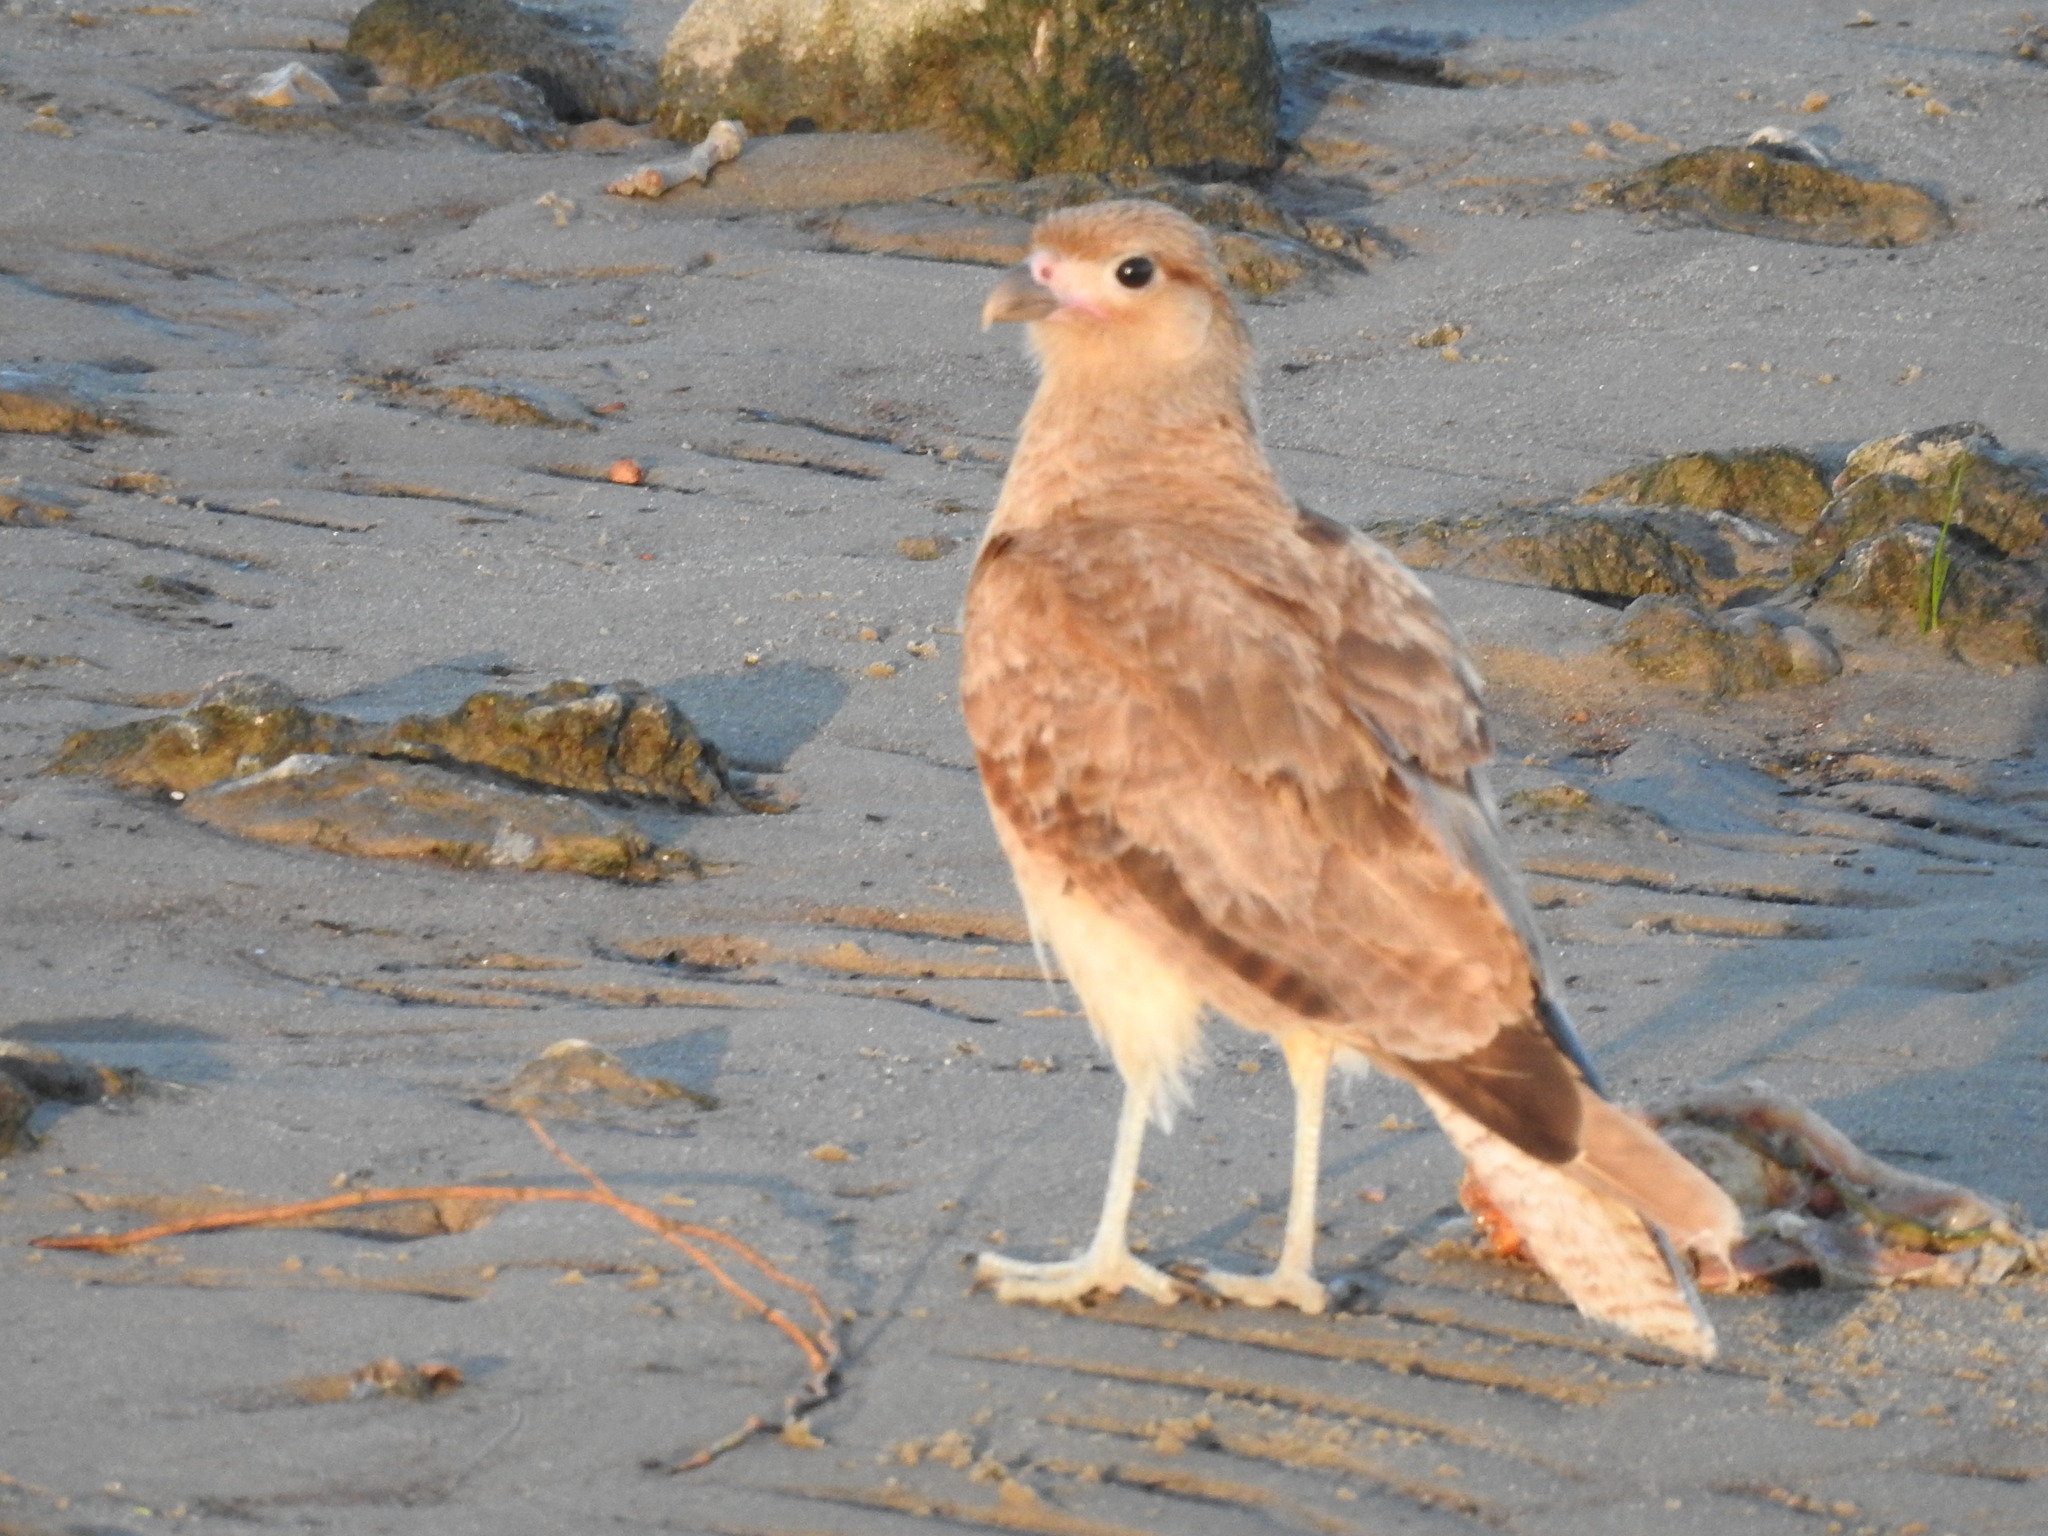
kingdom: Animalia
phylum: Chordata
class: Aves
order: Falconiformes
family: Falconidae
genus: Daptrius
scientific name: Daptrius
